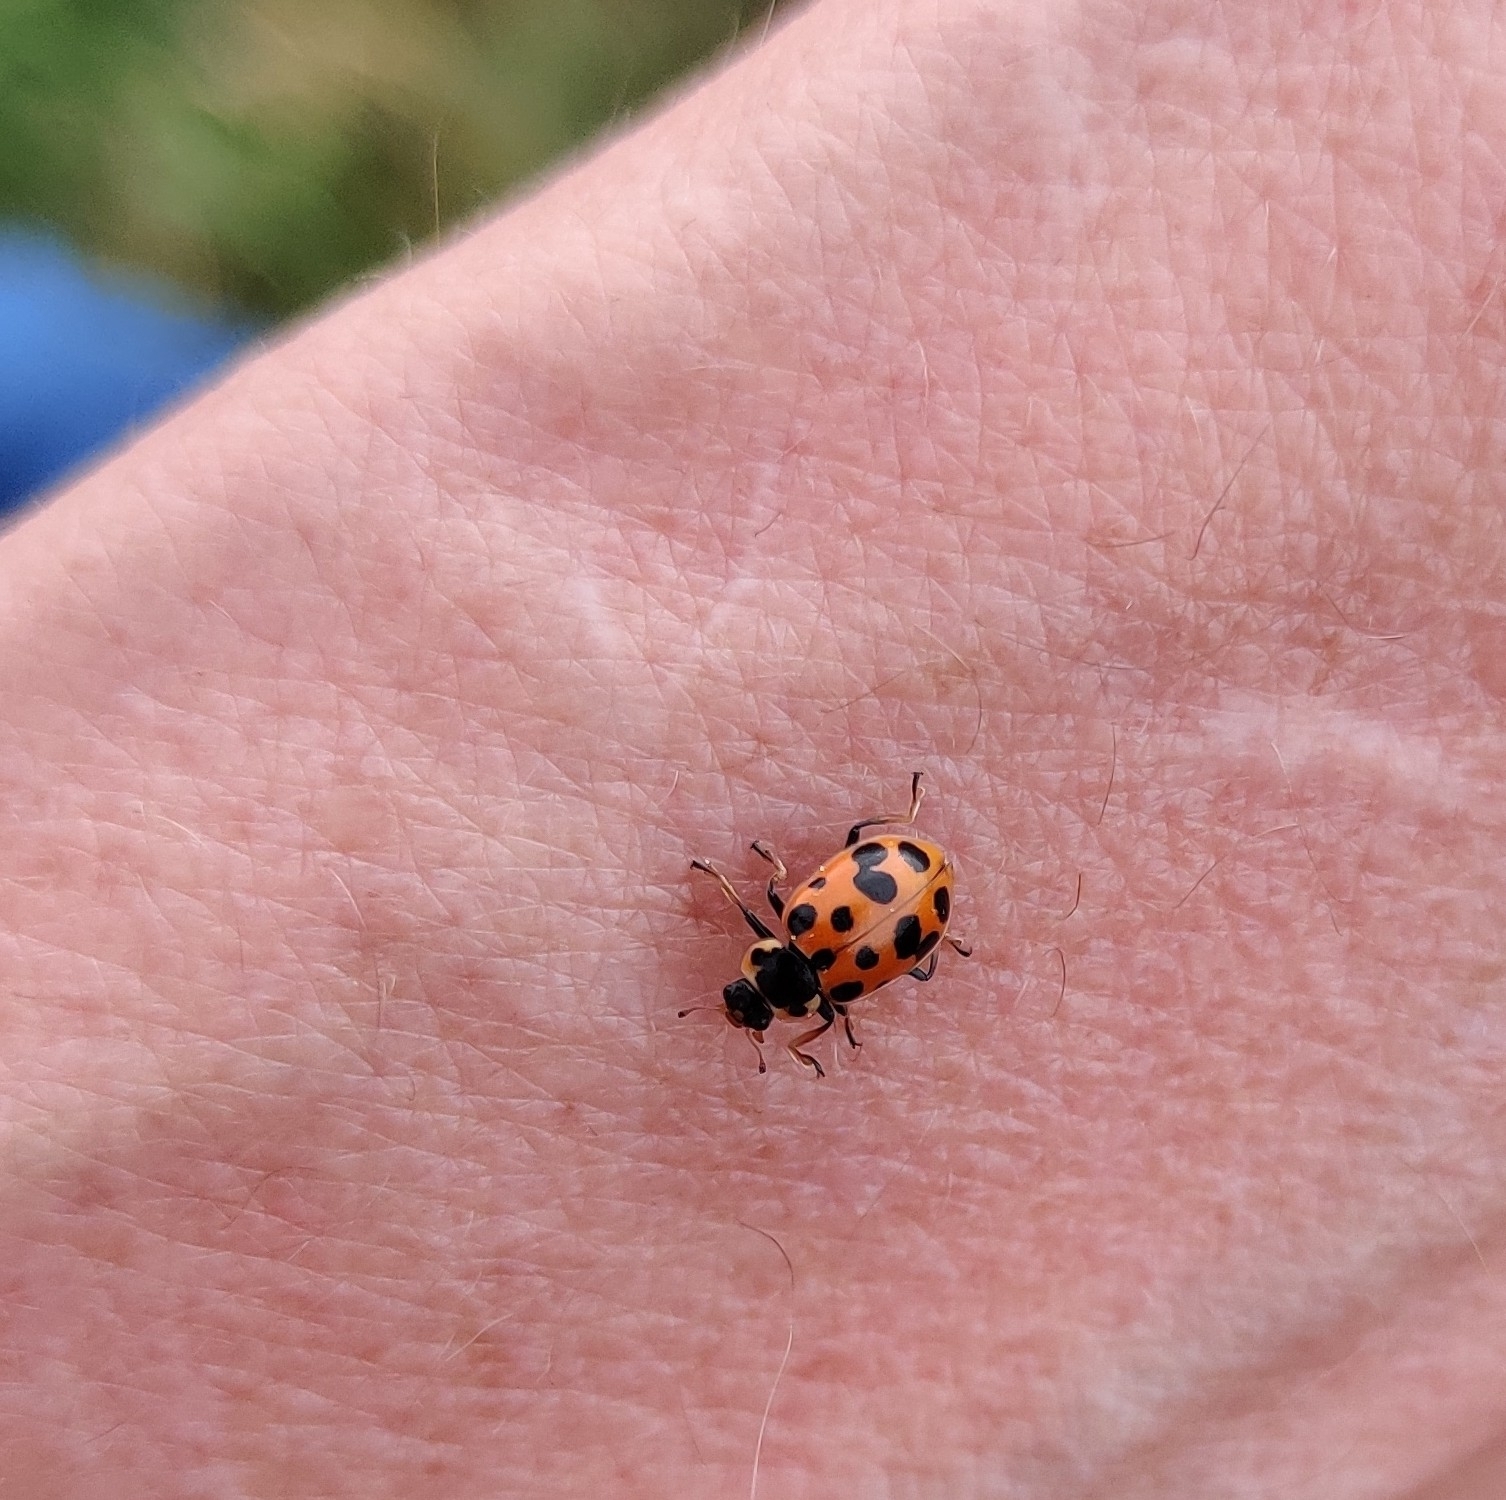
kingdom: Animalia
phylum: Arthropoda
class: Insecta
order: Coleoptera
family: Coccinellidae
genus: Hippodamia
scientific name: Hippodamia tredecimpunctata
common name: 13-spot ladybird
